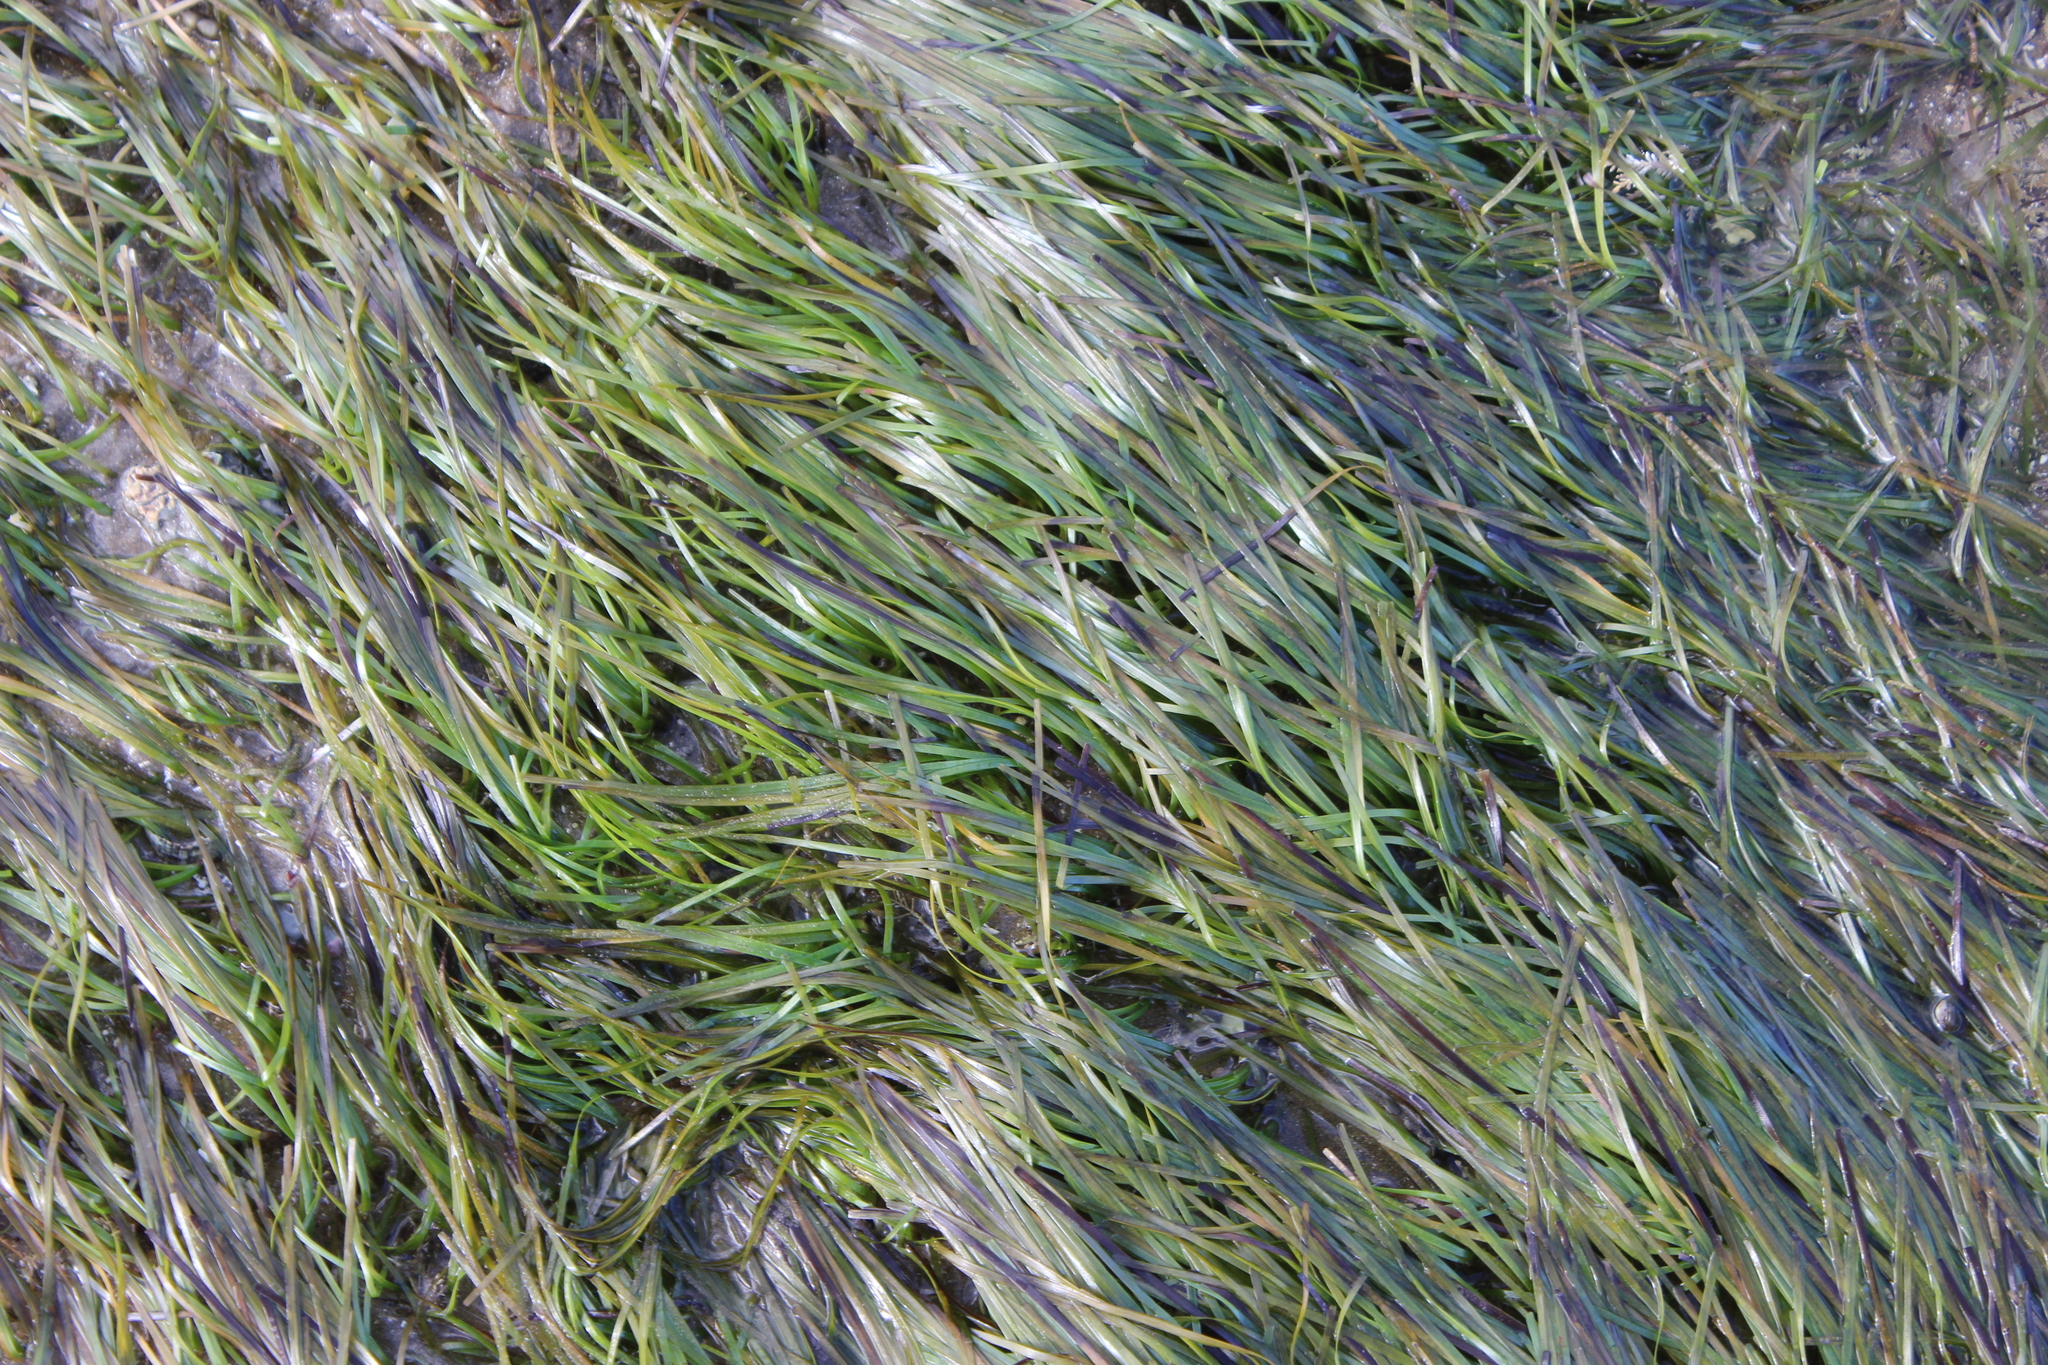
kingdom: Plantae
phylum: Tracheophyta
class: Liliopsida
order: Alismatales
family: Zosteraceae
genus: Zostera
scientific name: Zostera muelleri
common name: Species code: zc
